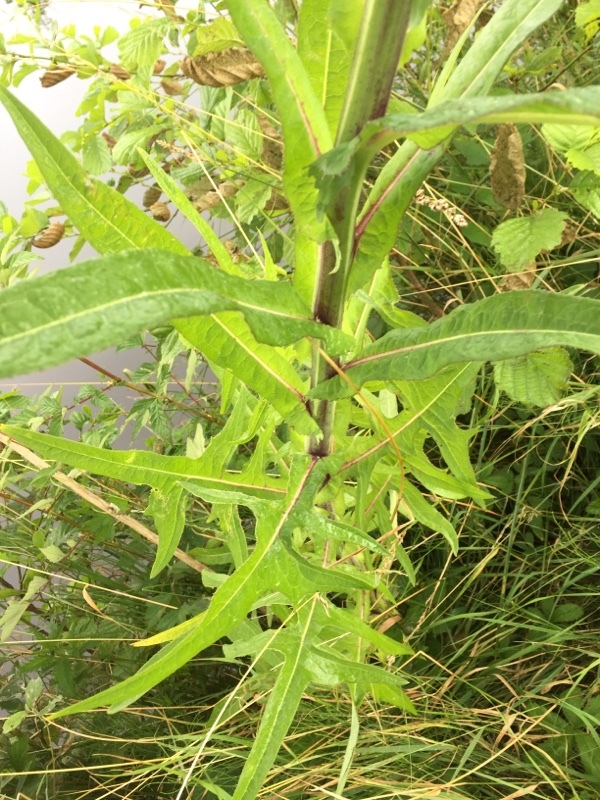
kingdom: Plantae
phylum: Tracheophyta
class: Magnoliopsida
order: Asterales
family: Asteraceae
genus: Sonchus
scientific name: Sonchus palustris
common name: Marsh sow-thistle
